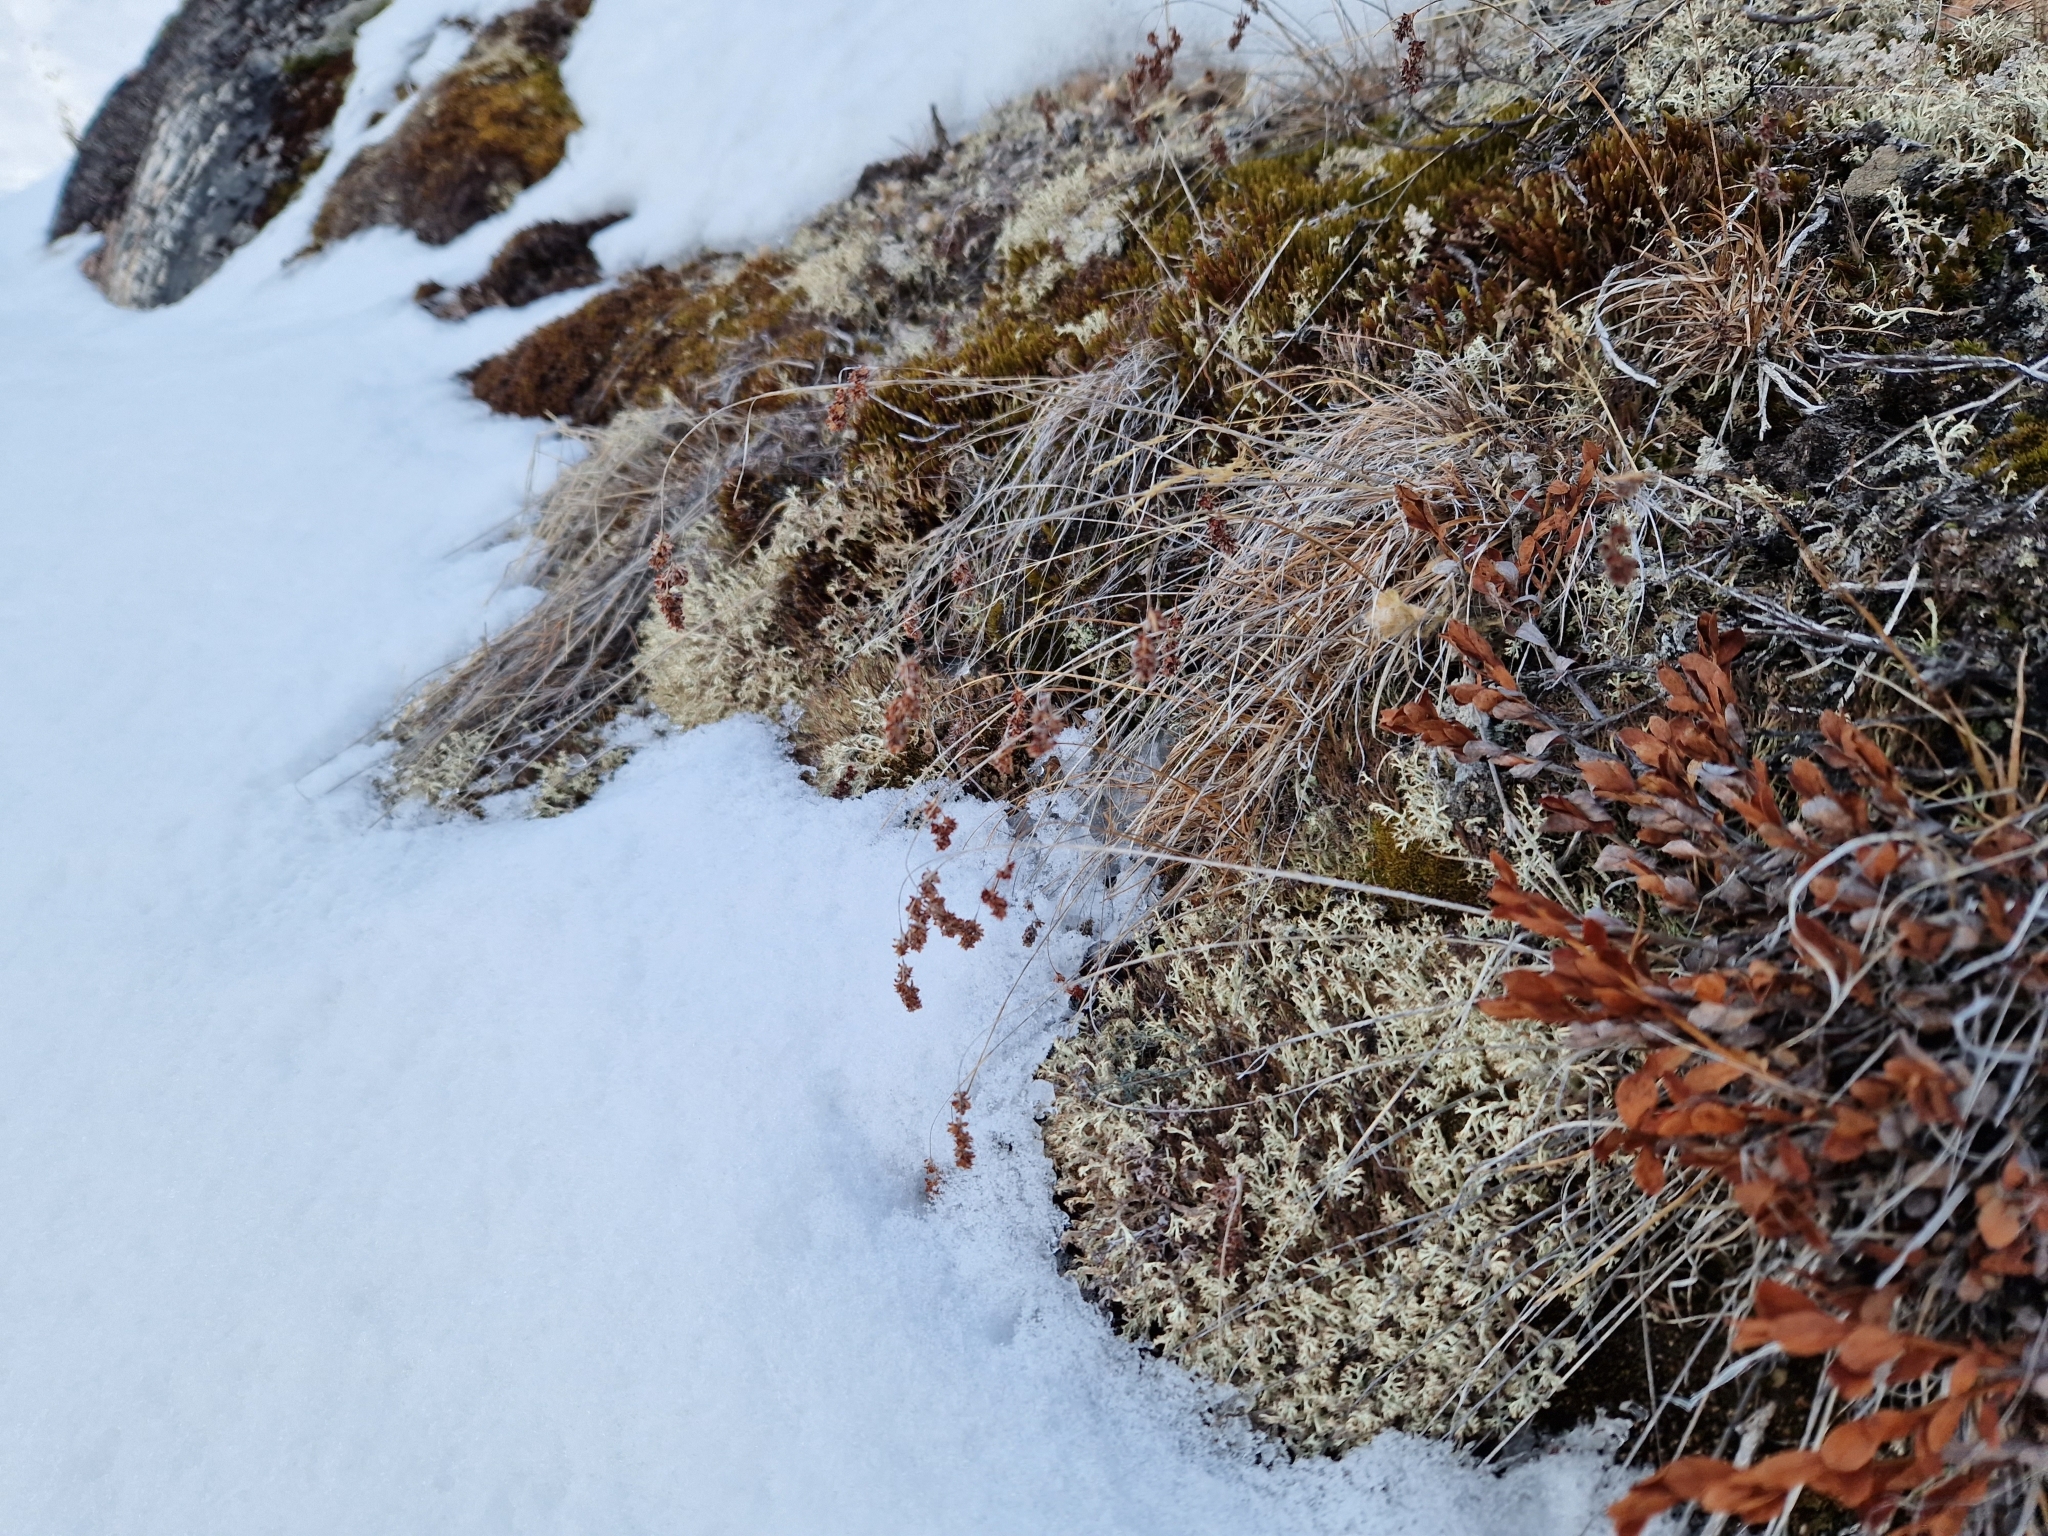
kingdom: Plantae
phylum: Tracheophyta
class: Liliopsida
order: Poales
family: Juncaceae
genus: Luzula
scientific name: Luzula spicata
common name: Spiked wood-rush
